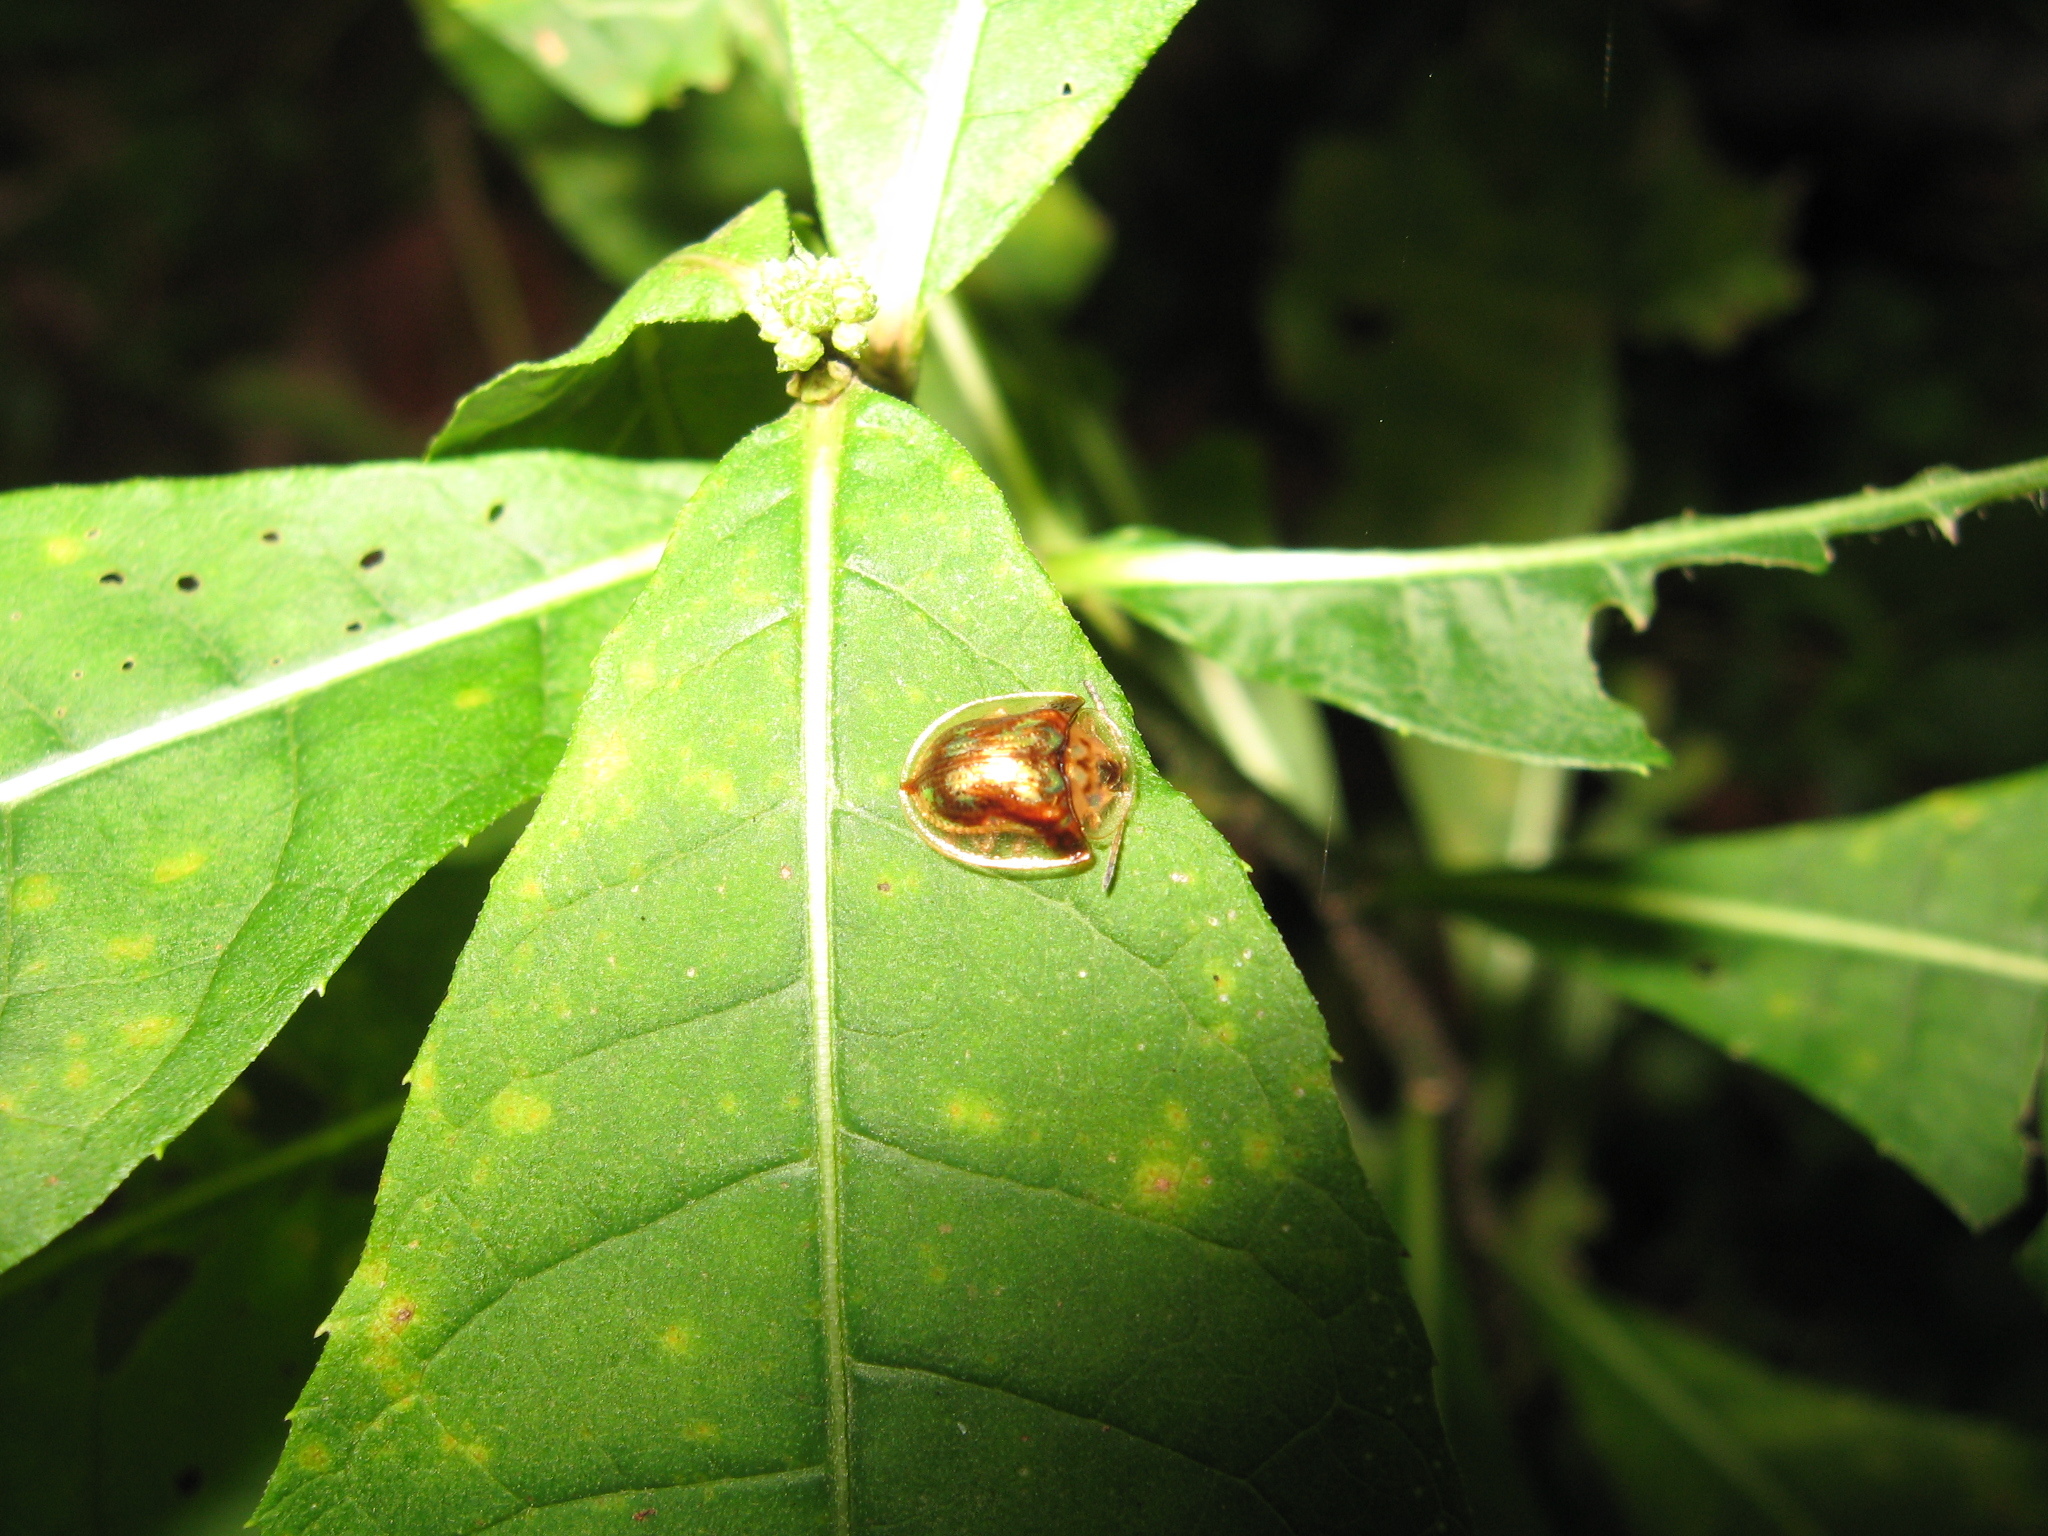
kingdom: Animalia
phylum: Arthropoda
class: Insecta
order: Coleoptera
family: Chrysomelidae
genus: Deloyala
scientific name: Deloyala guttata
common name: Mottled tortoise beetle
